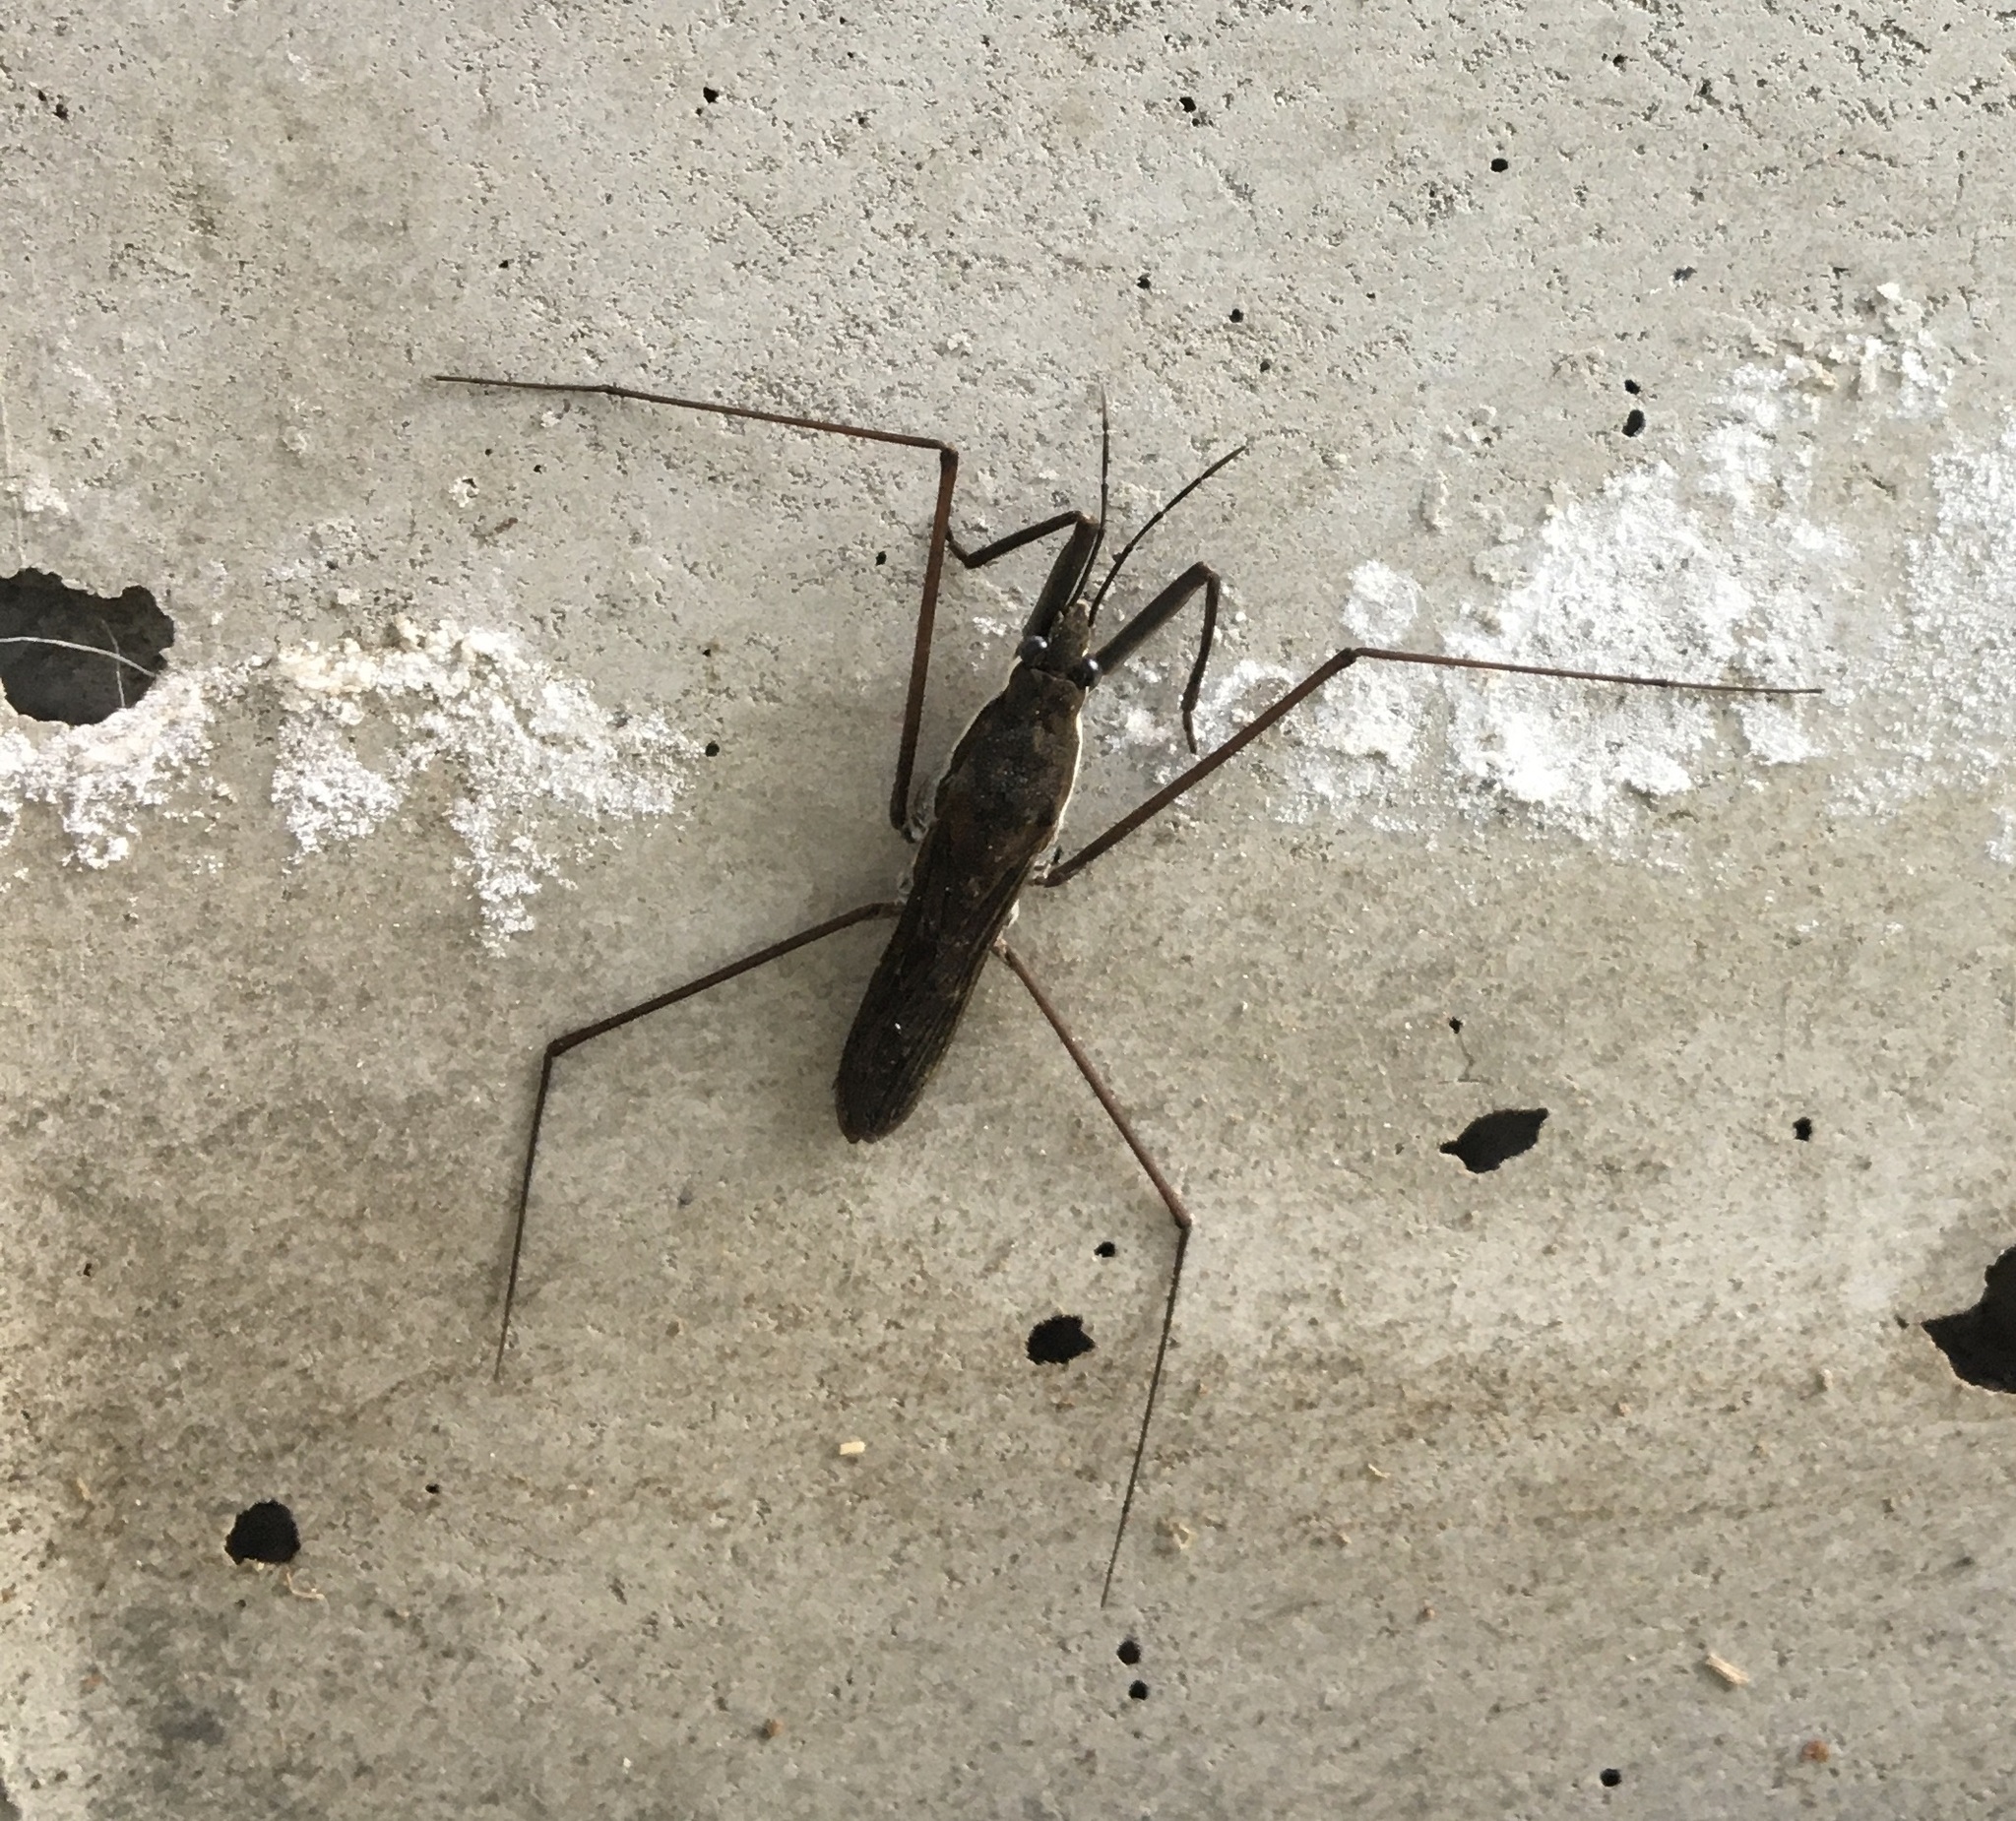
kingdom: Animalia
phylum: Arthropoda
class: Insecta
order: Hemiptera
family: Gerridae
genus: Aquarius
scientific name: Aquarius remigis
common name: Common water strider
